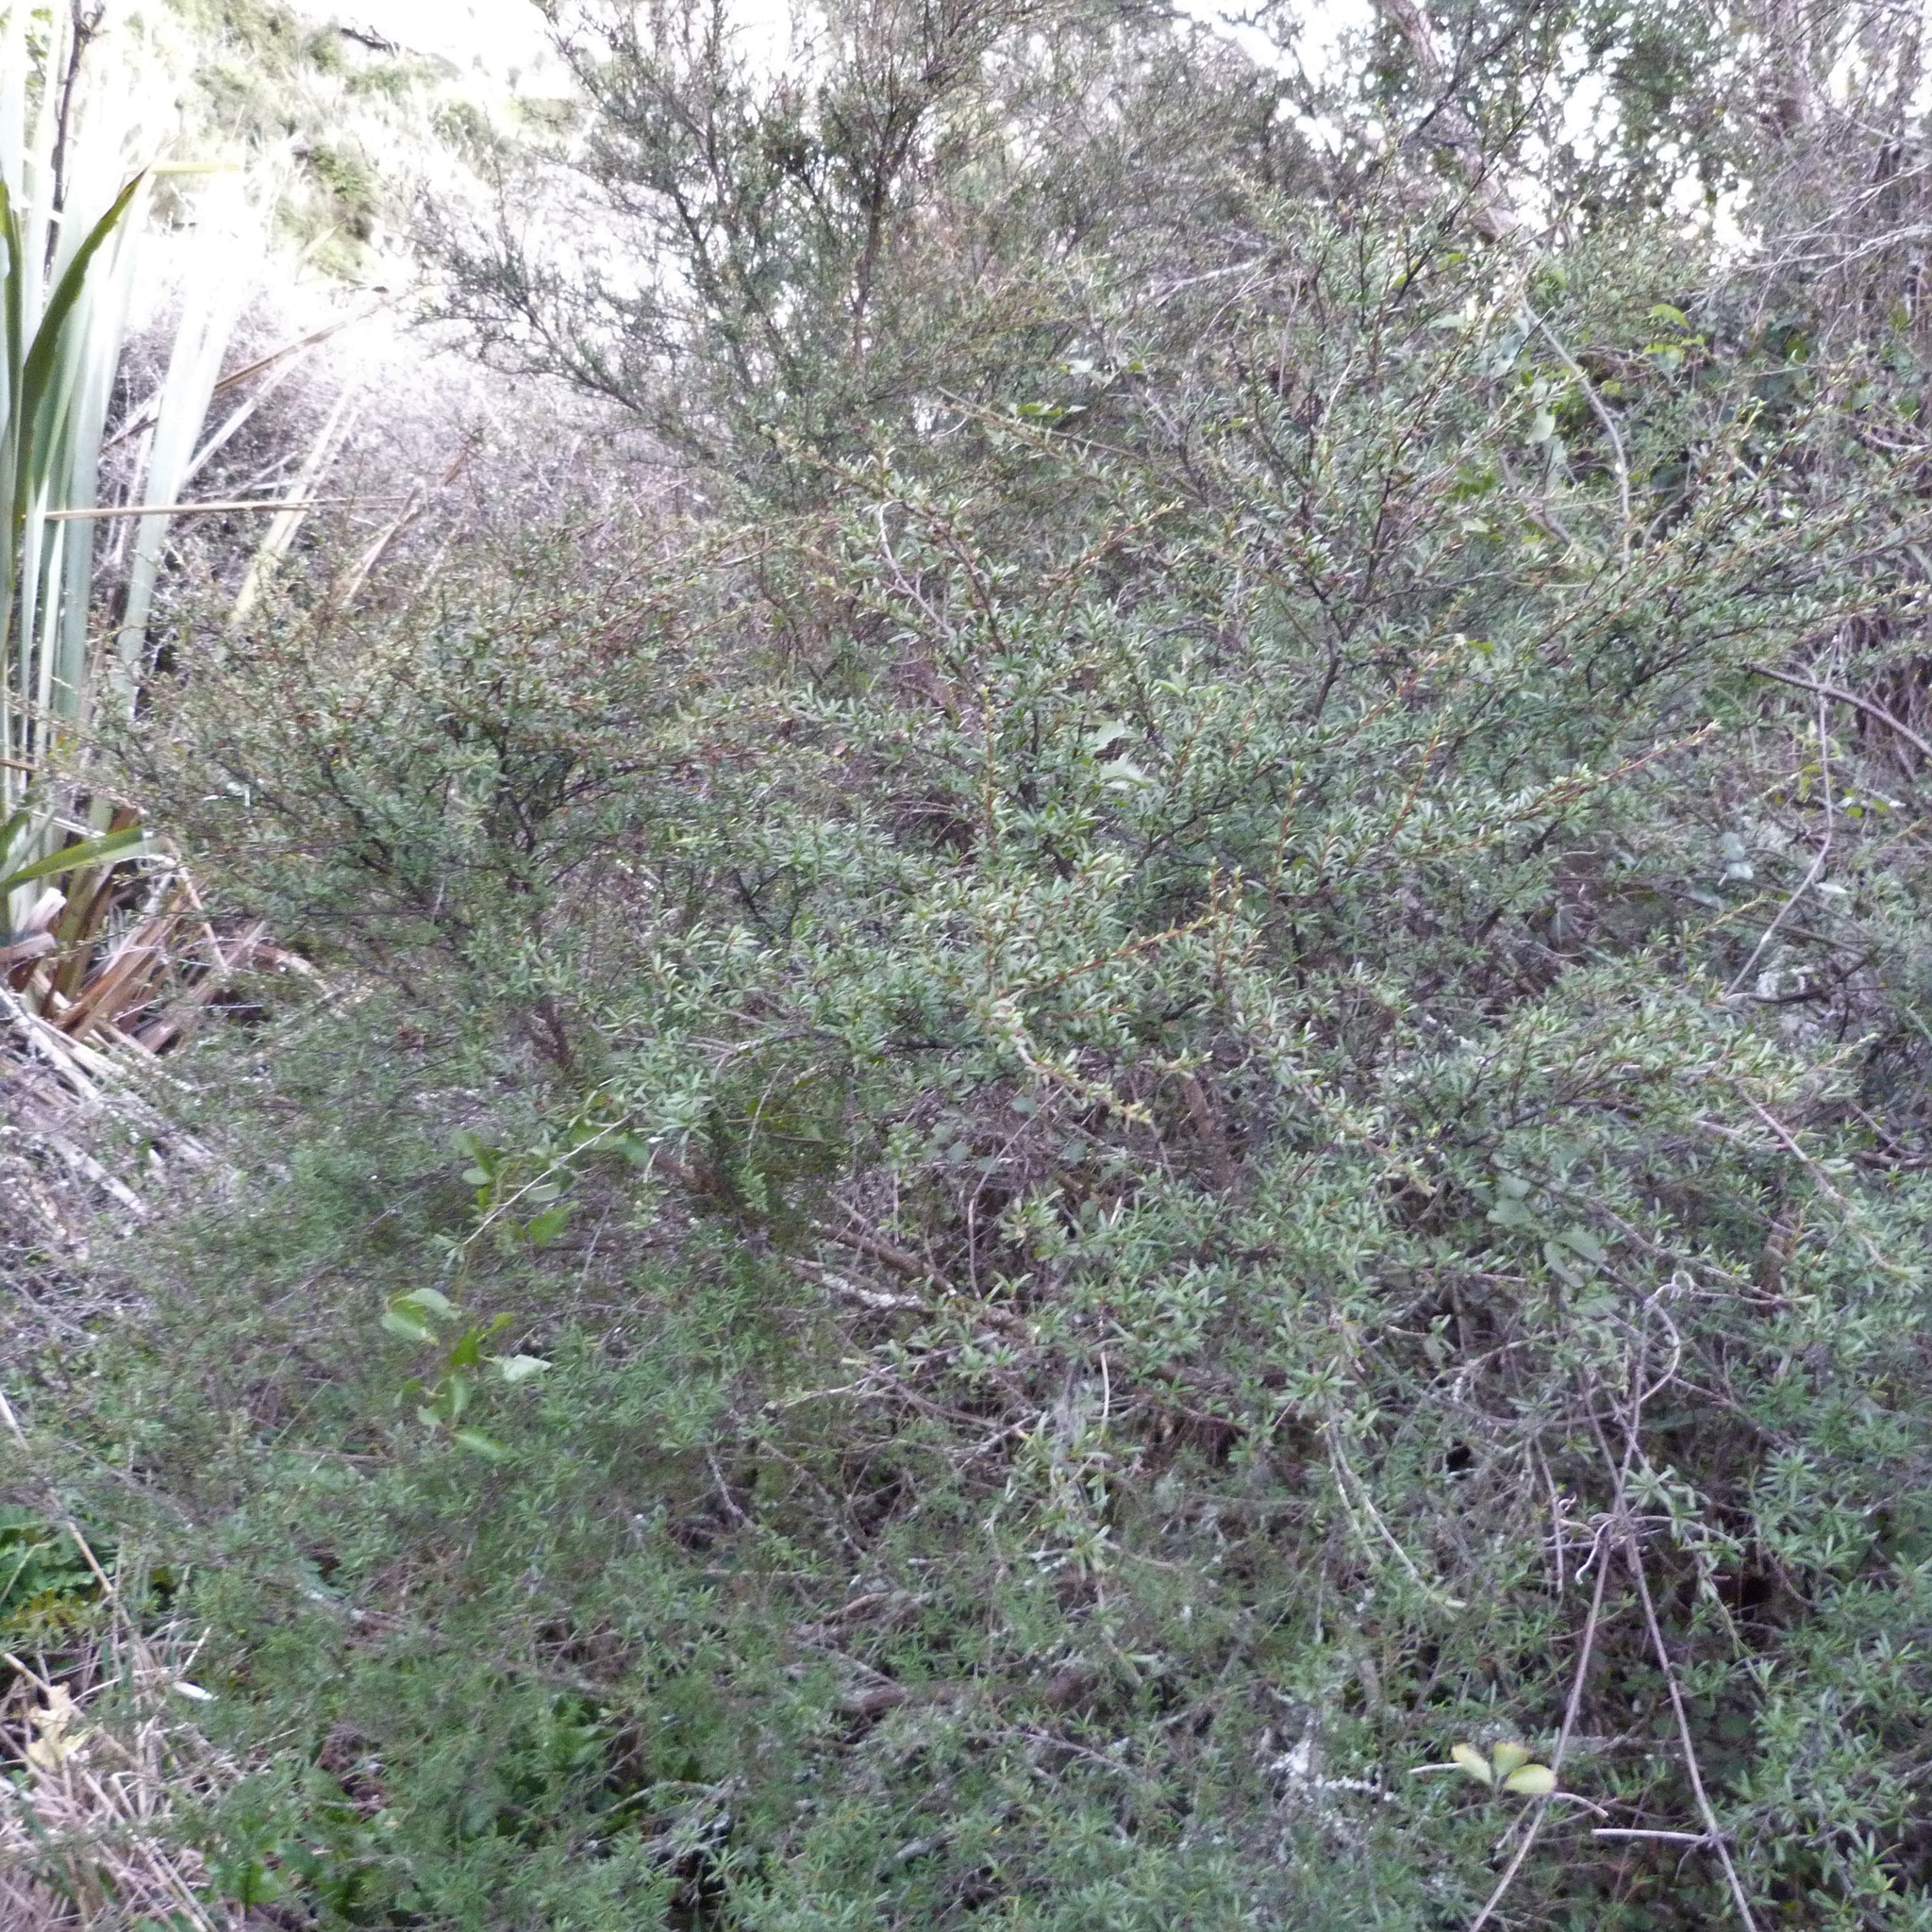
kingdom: Plantae
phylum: Tracheophyta
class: Magnoliopsida
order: Myrtales
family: Myrtaceae
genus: Kunzea
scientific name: Kunzea robusta
